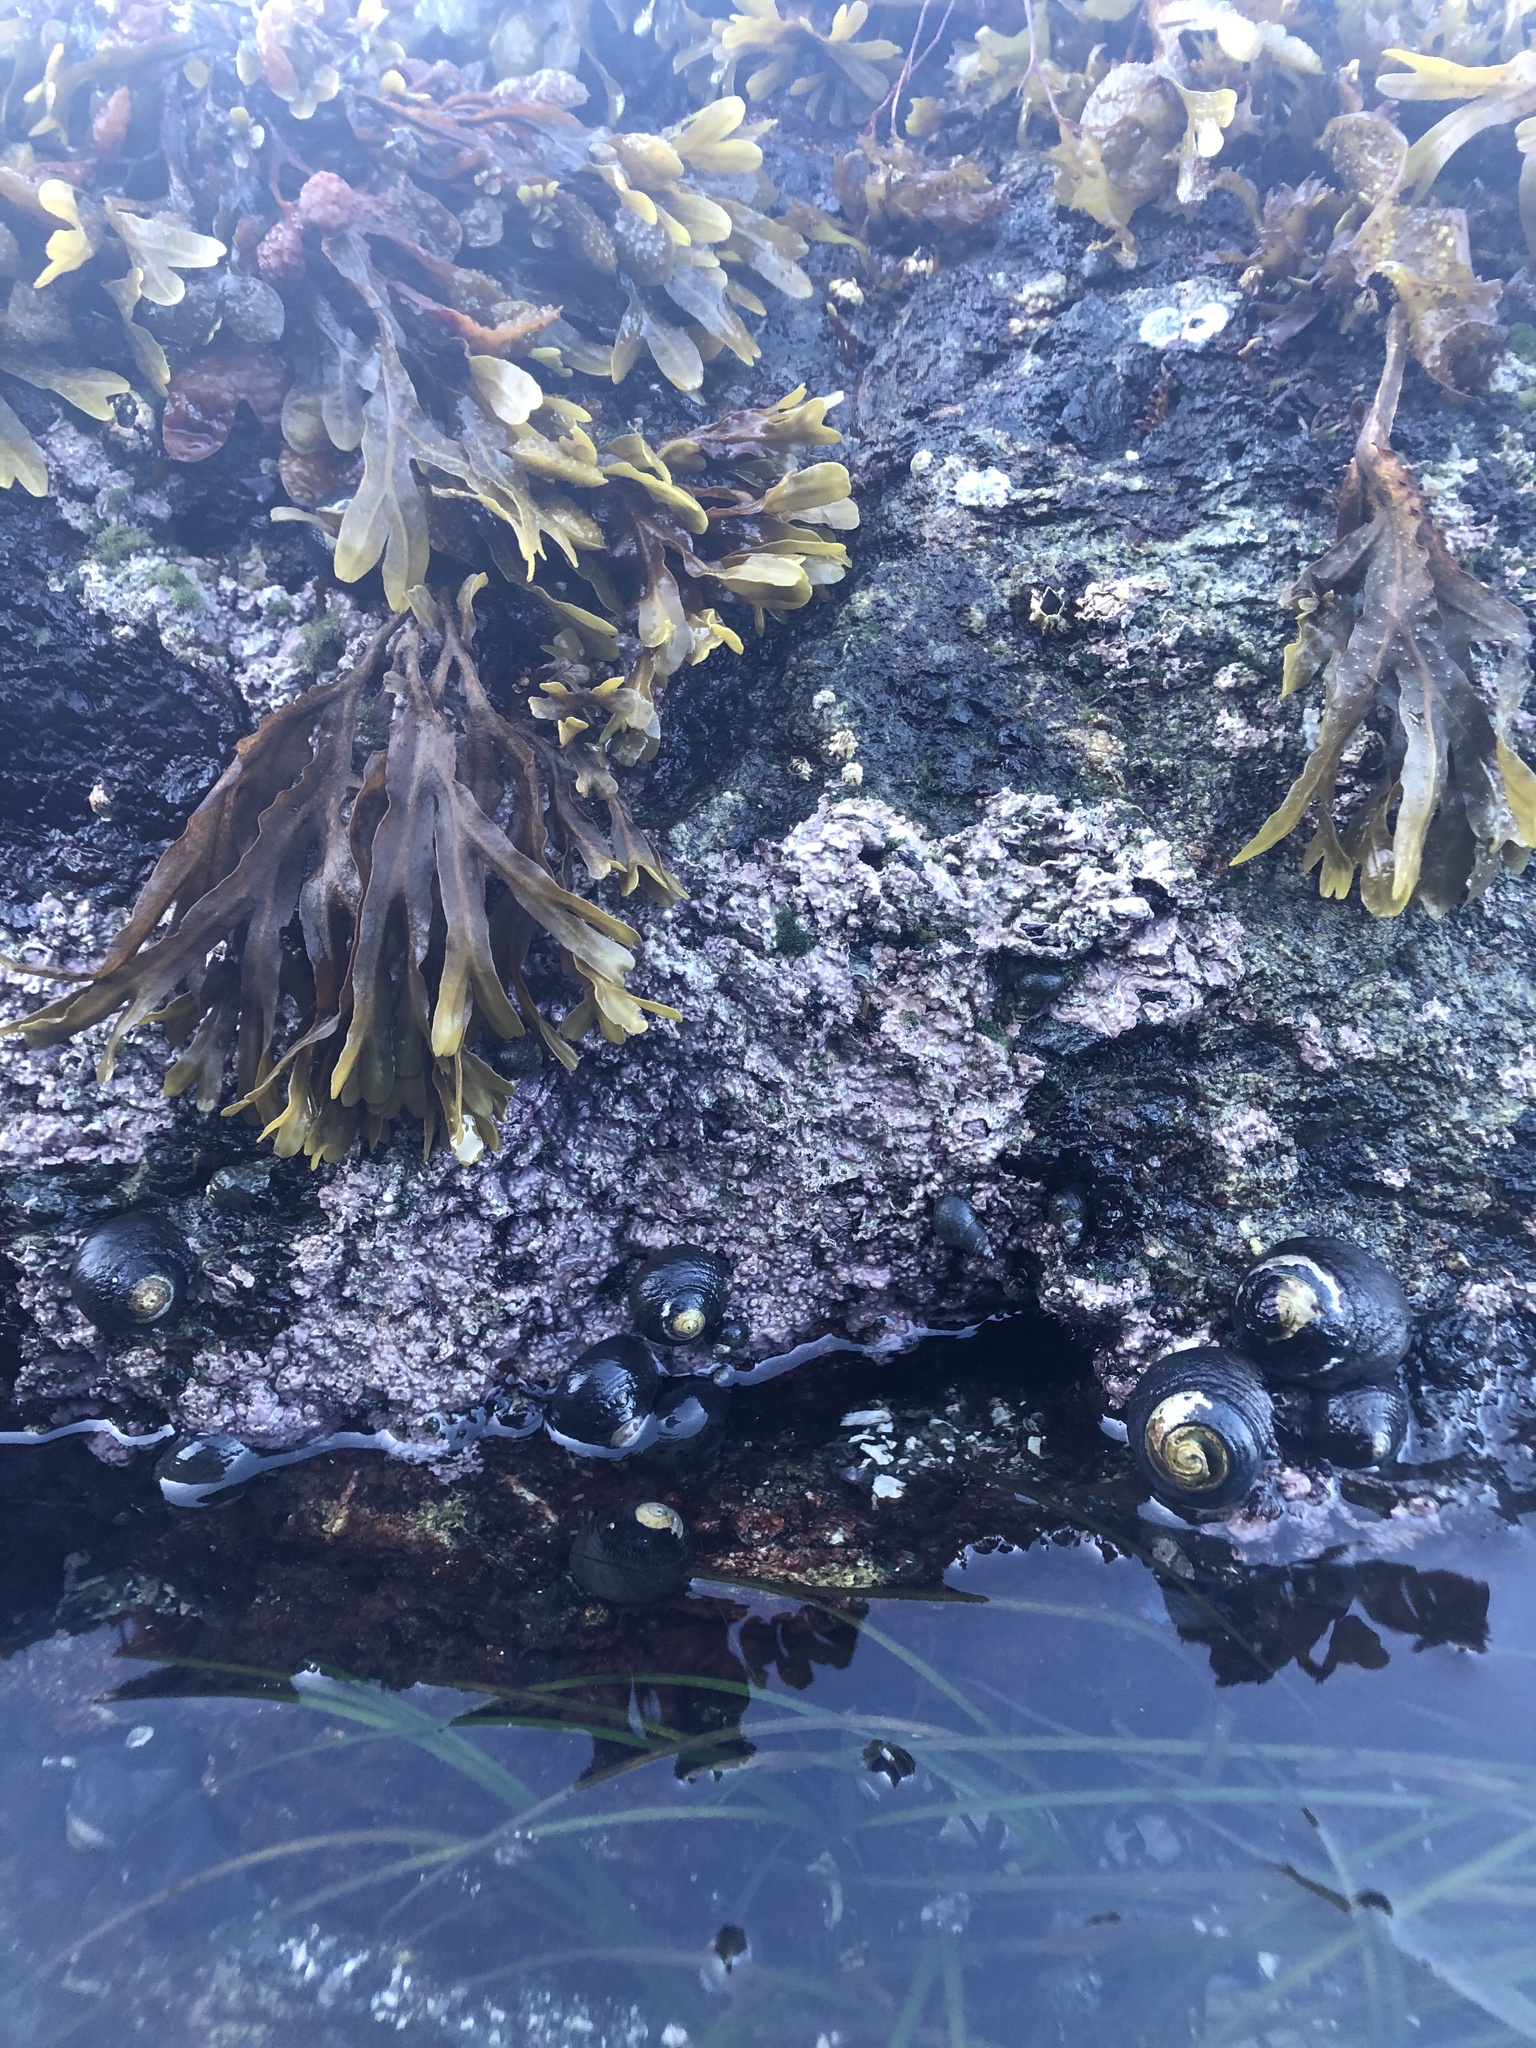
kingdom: Plantae
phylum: Rhodophyta
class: Florideophyceae
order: Corallinales
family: Corallinaceae
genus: Chamberlainium
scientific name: Chamberlainium tumidum
